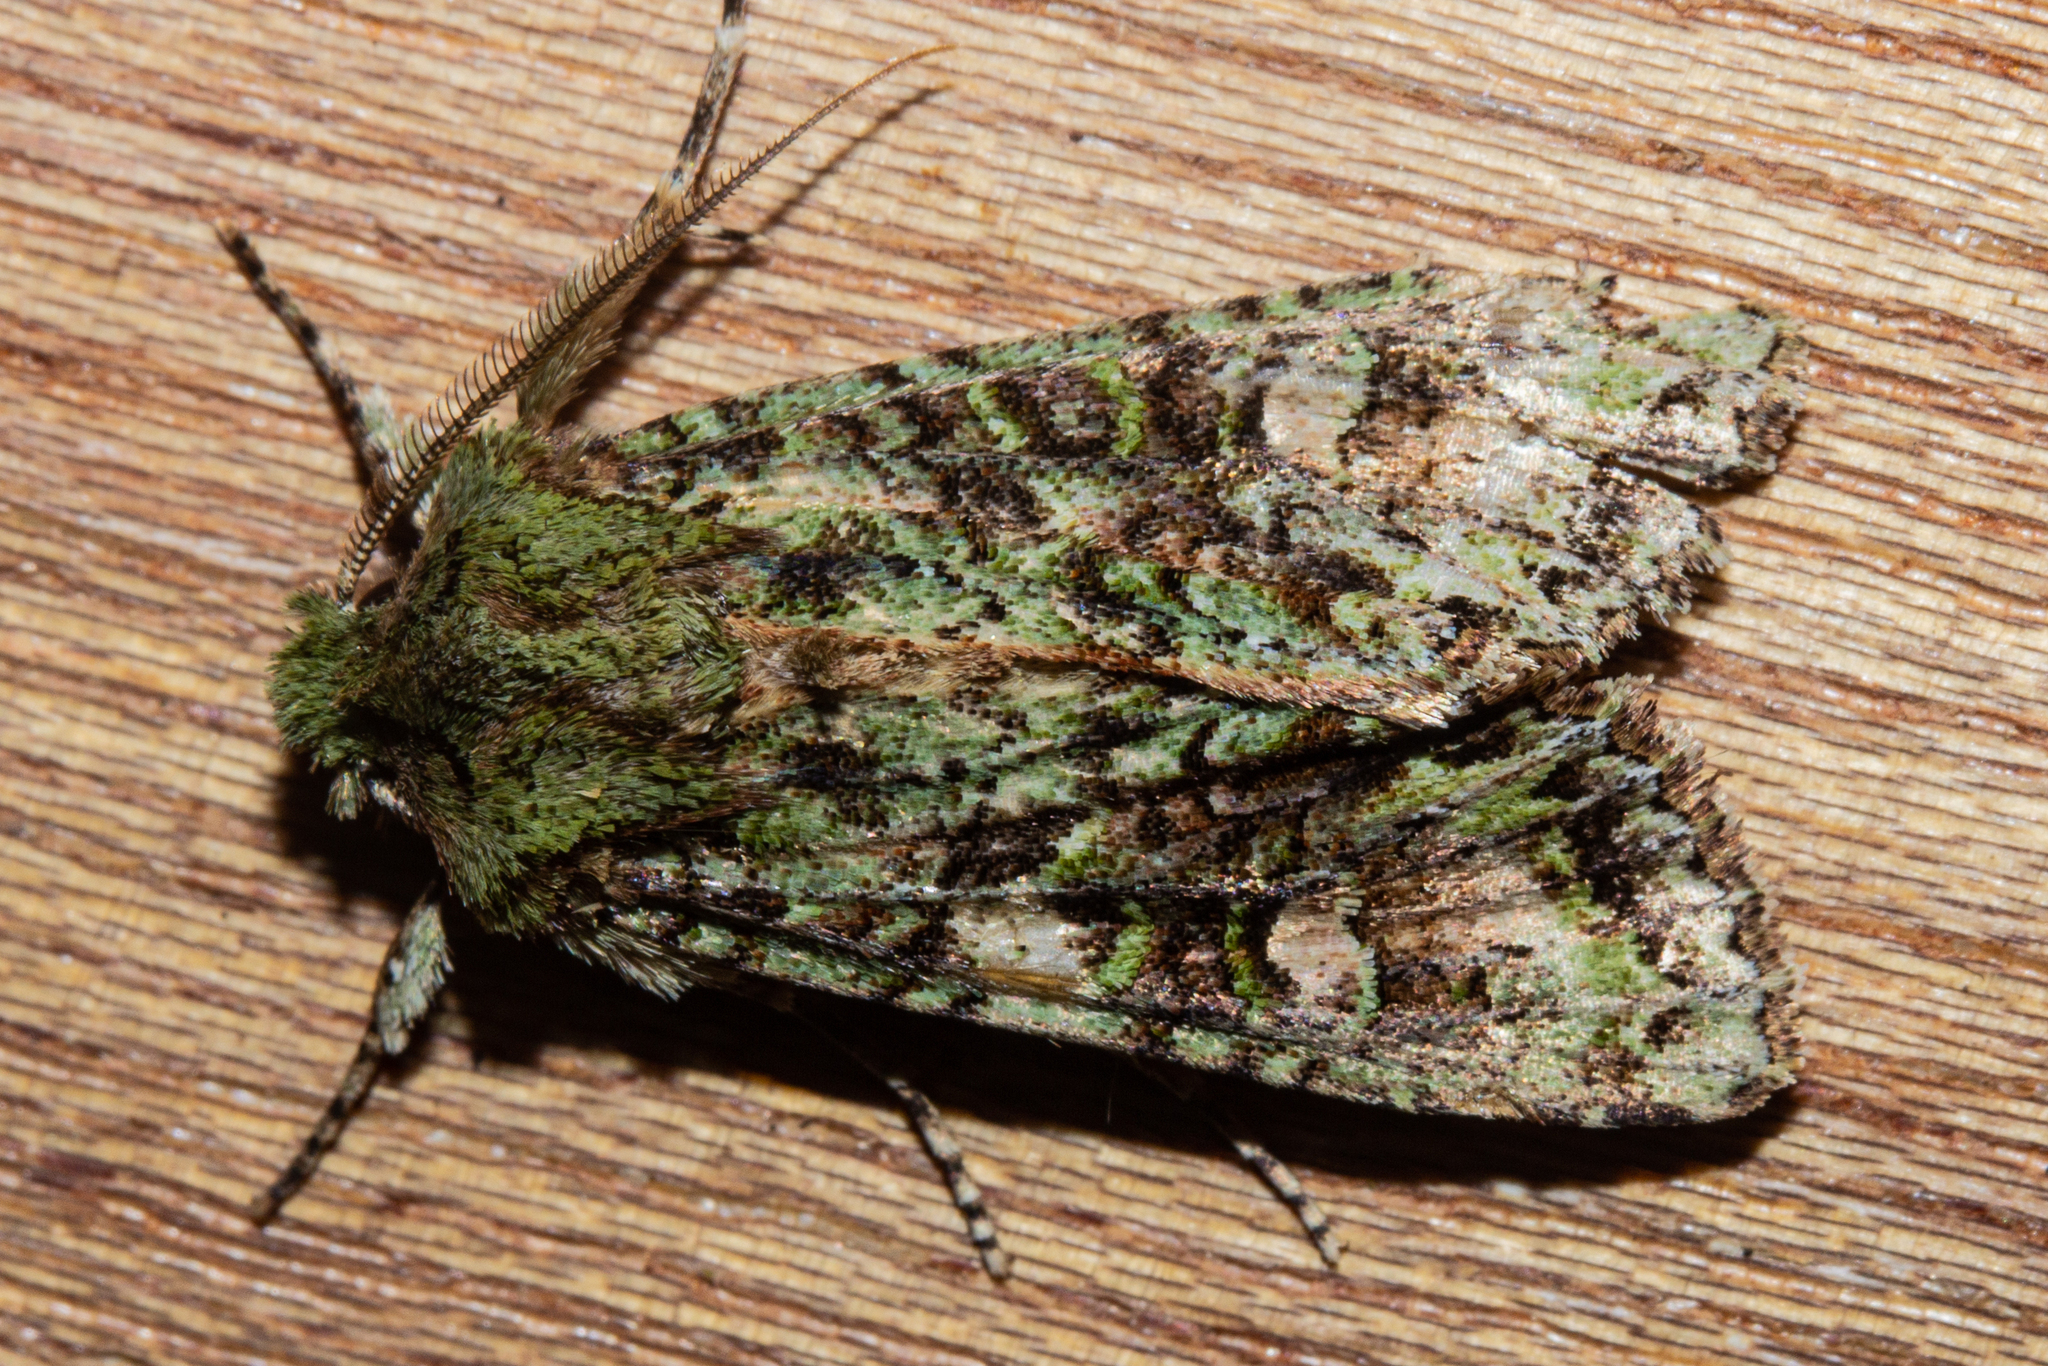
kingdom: Animalia
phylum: Arthropoda
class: Insecta
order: Lepidoptera
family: Noctuidae
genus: Ichneutica
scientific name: Ichneutica
